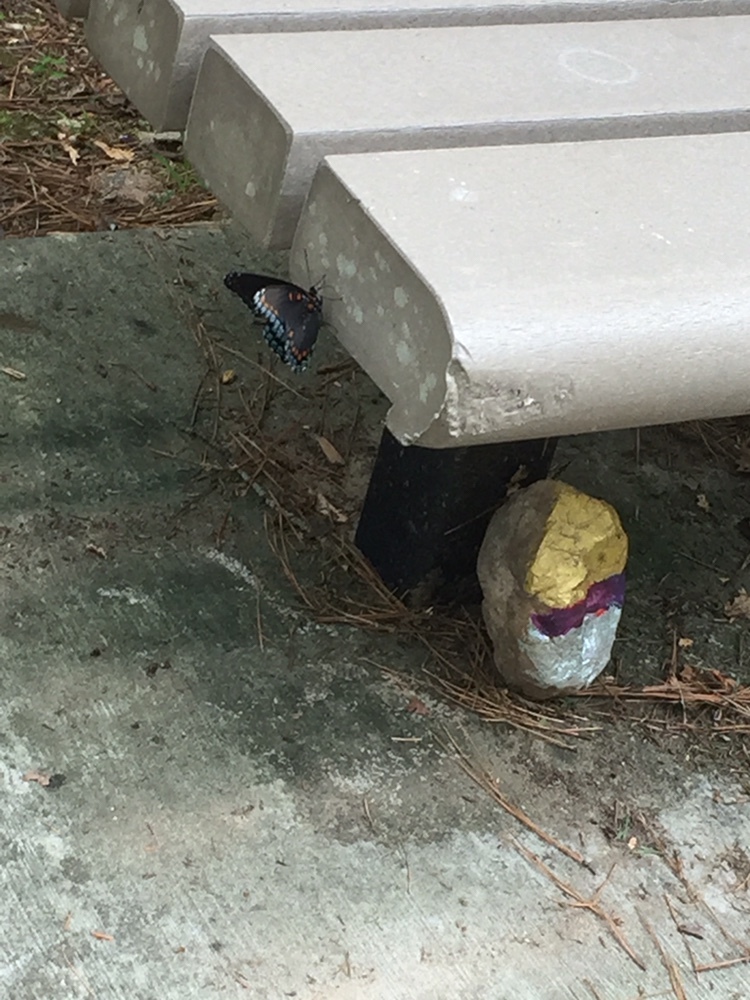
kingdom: Animalia
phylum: Arthropoda
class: Insecta
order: Lepidoptera
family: Nymphalidae
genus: Limenitis
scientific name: Limenitis astyanax
